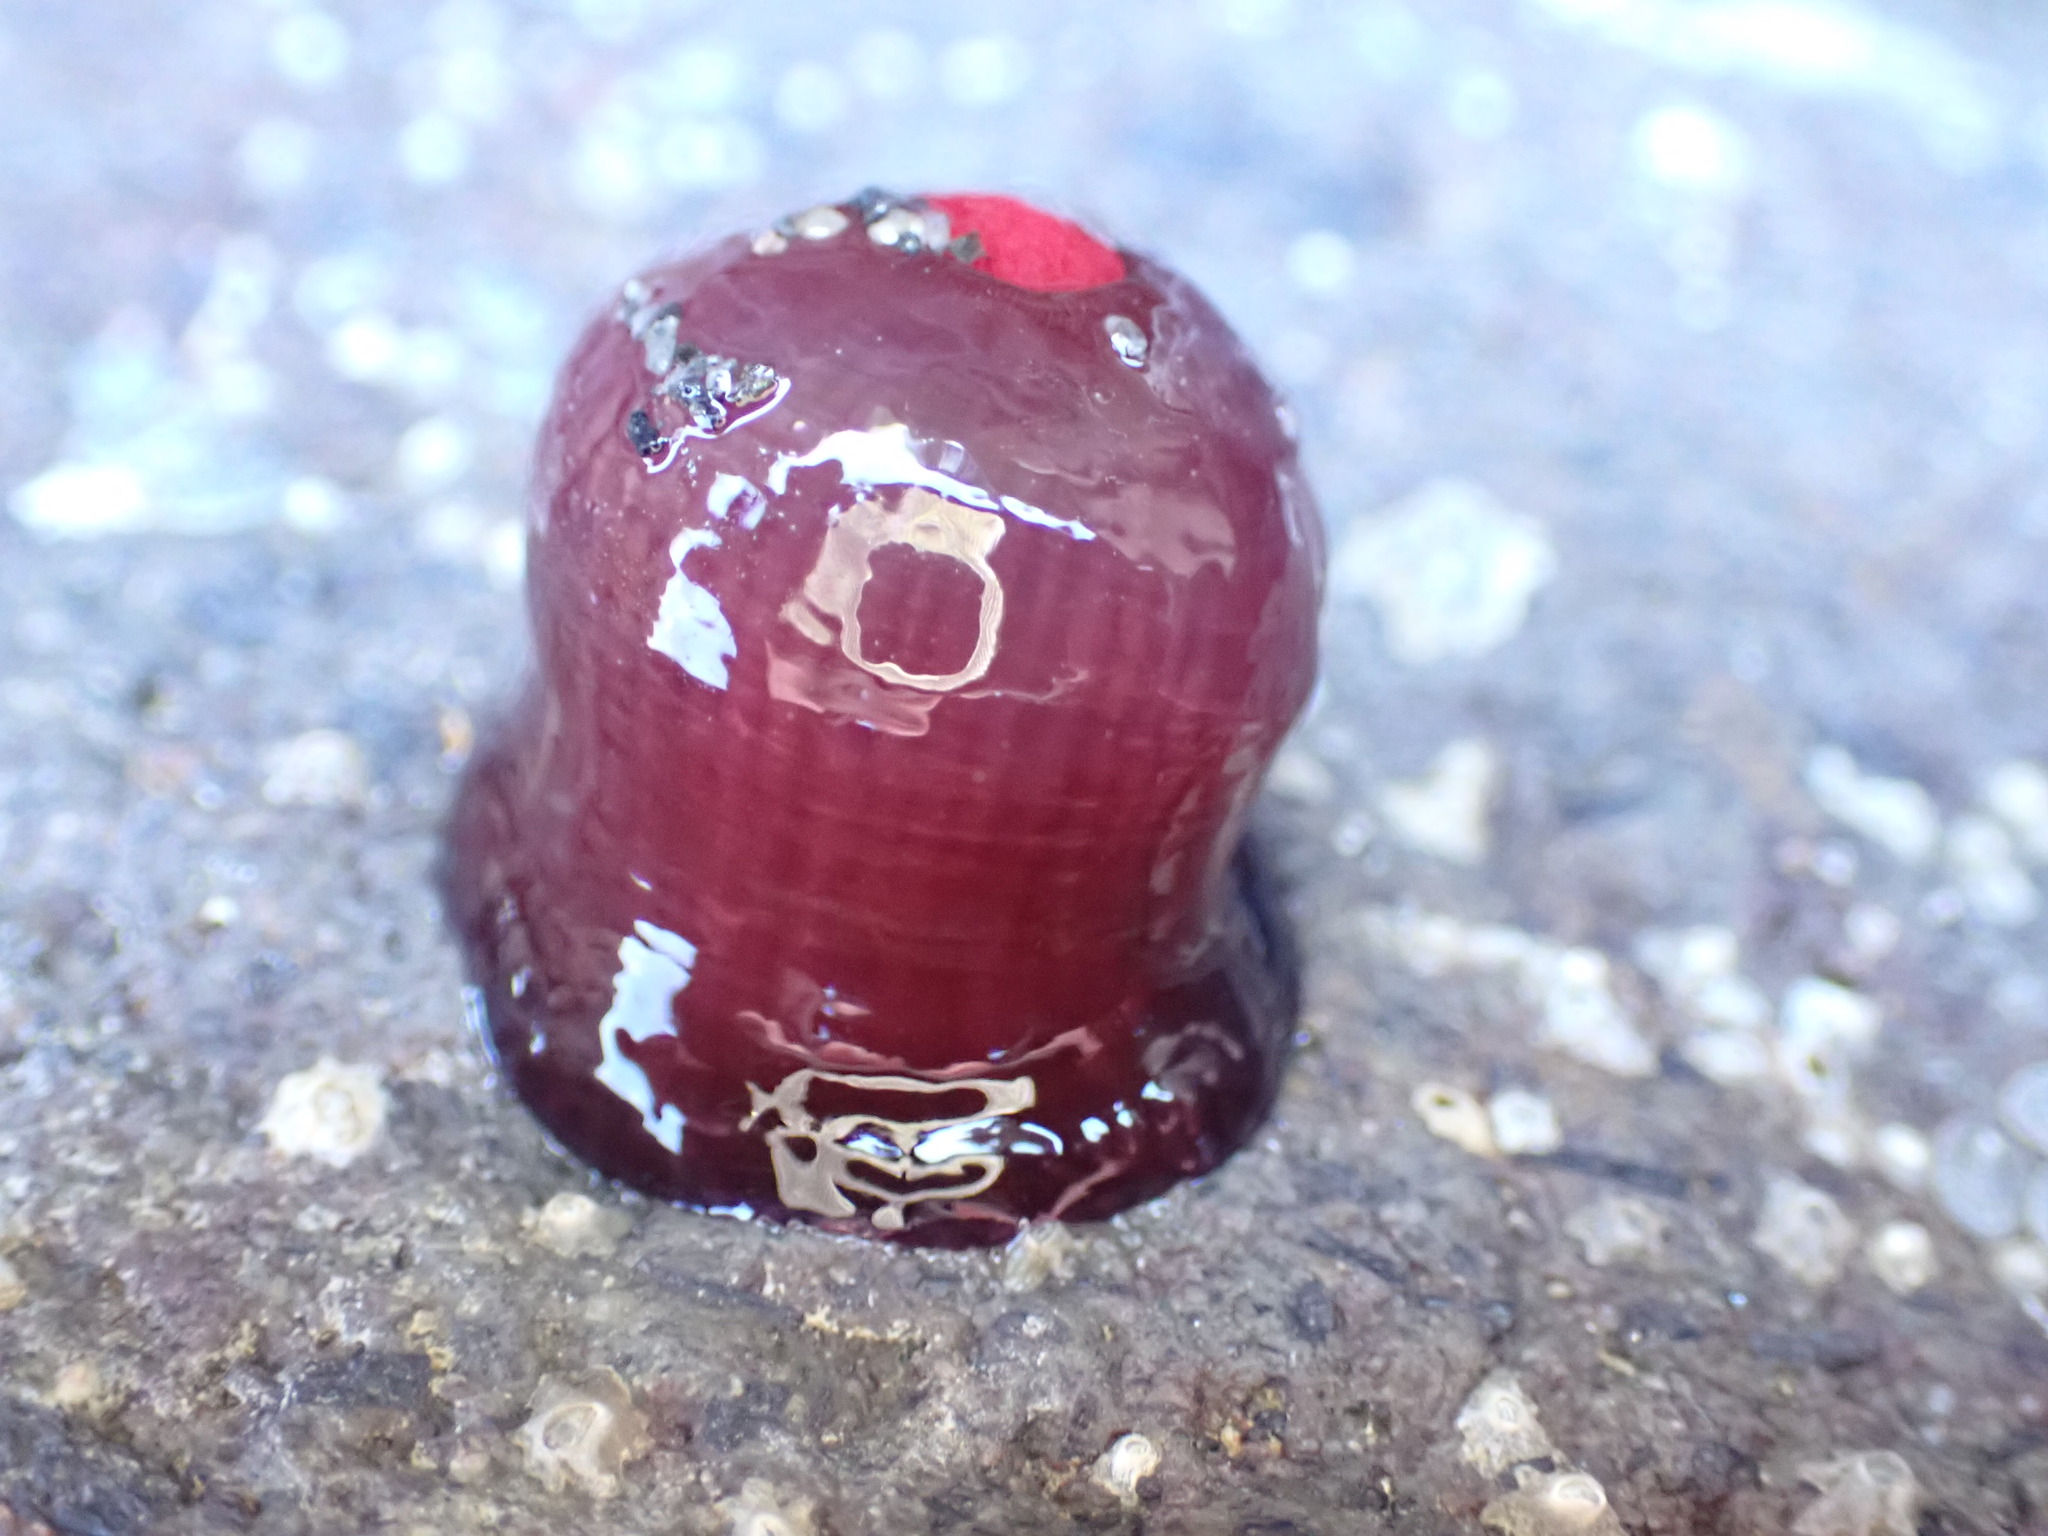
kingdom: Animalia
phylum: Cnidaria
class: Anthozoa
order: Actiniaria
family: Actiniidae
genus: Actinia
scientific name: Actinia tenebrosa
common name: Waratah anemone
